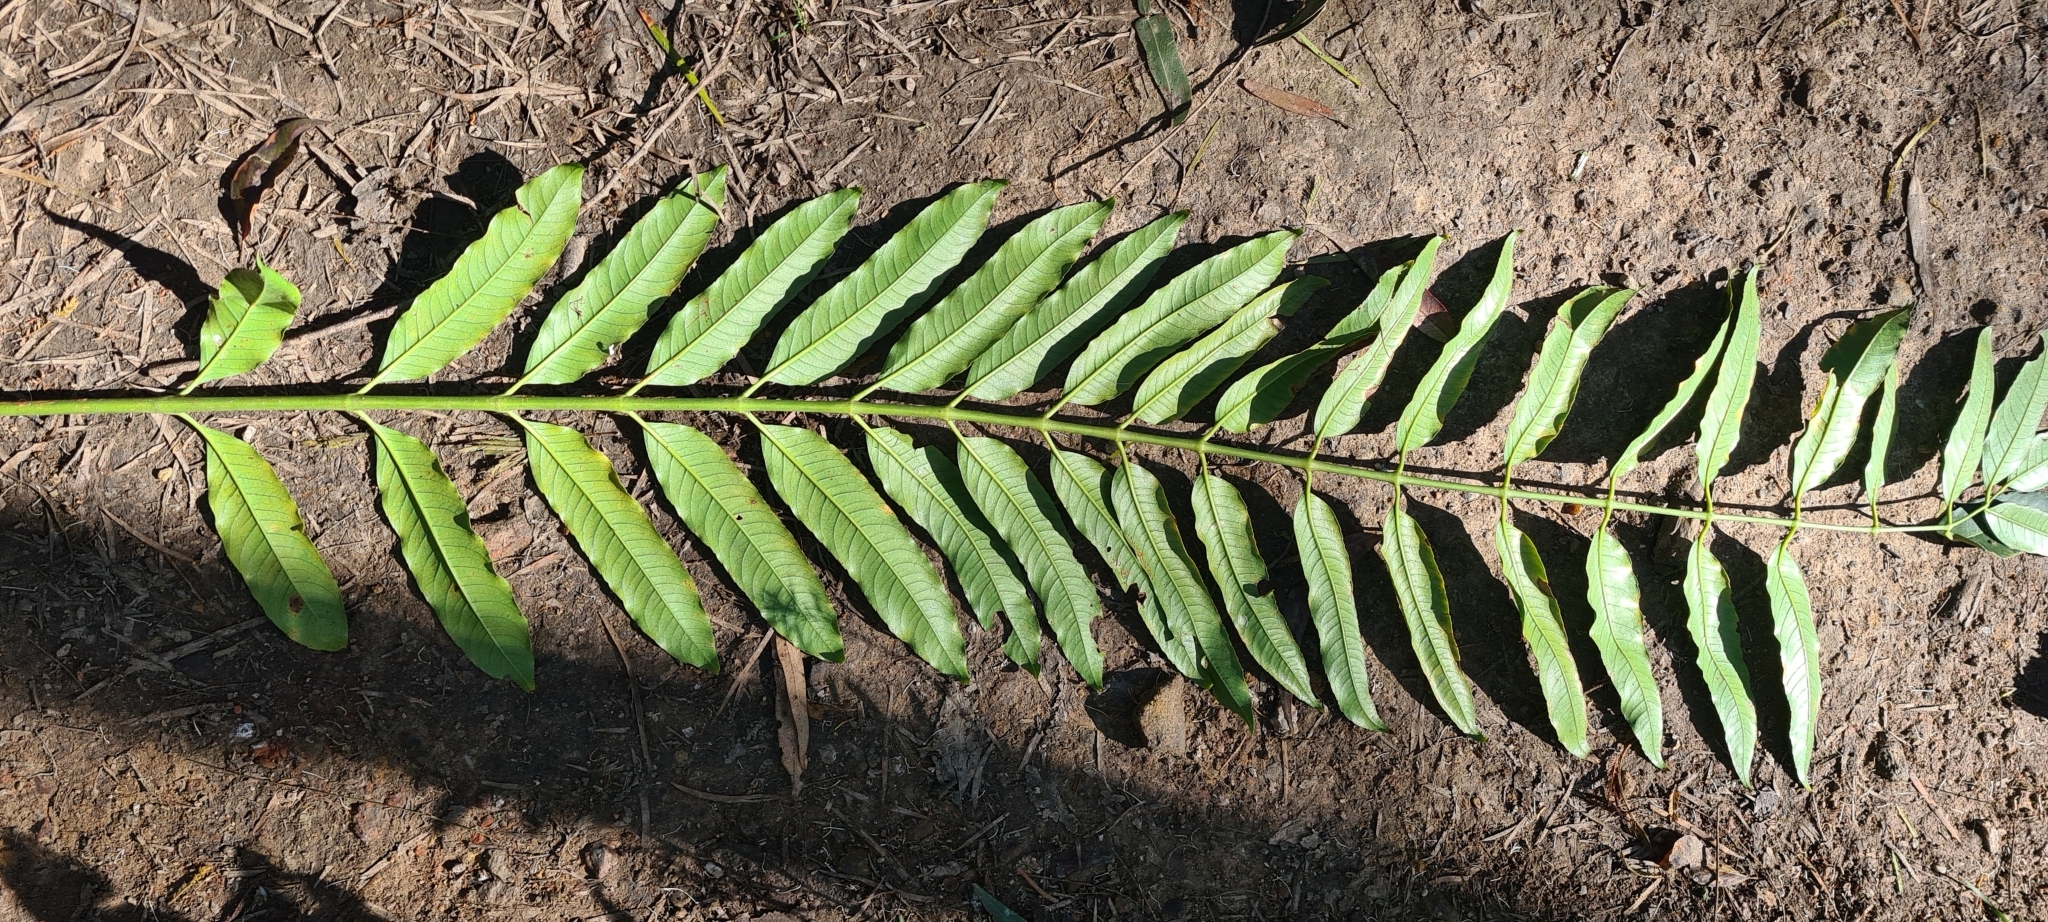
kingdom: Plantae
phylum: Tracheophyta
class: Magnoliopsida
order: Apiales
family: Araliaceae
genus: Polyscias
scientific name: Polyscias murrayi
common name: Pencil cedar
